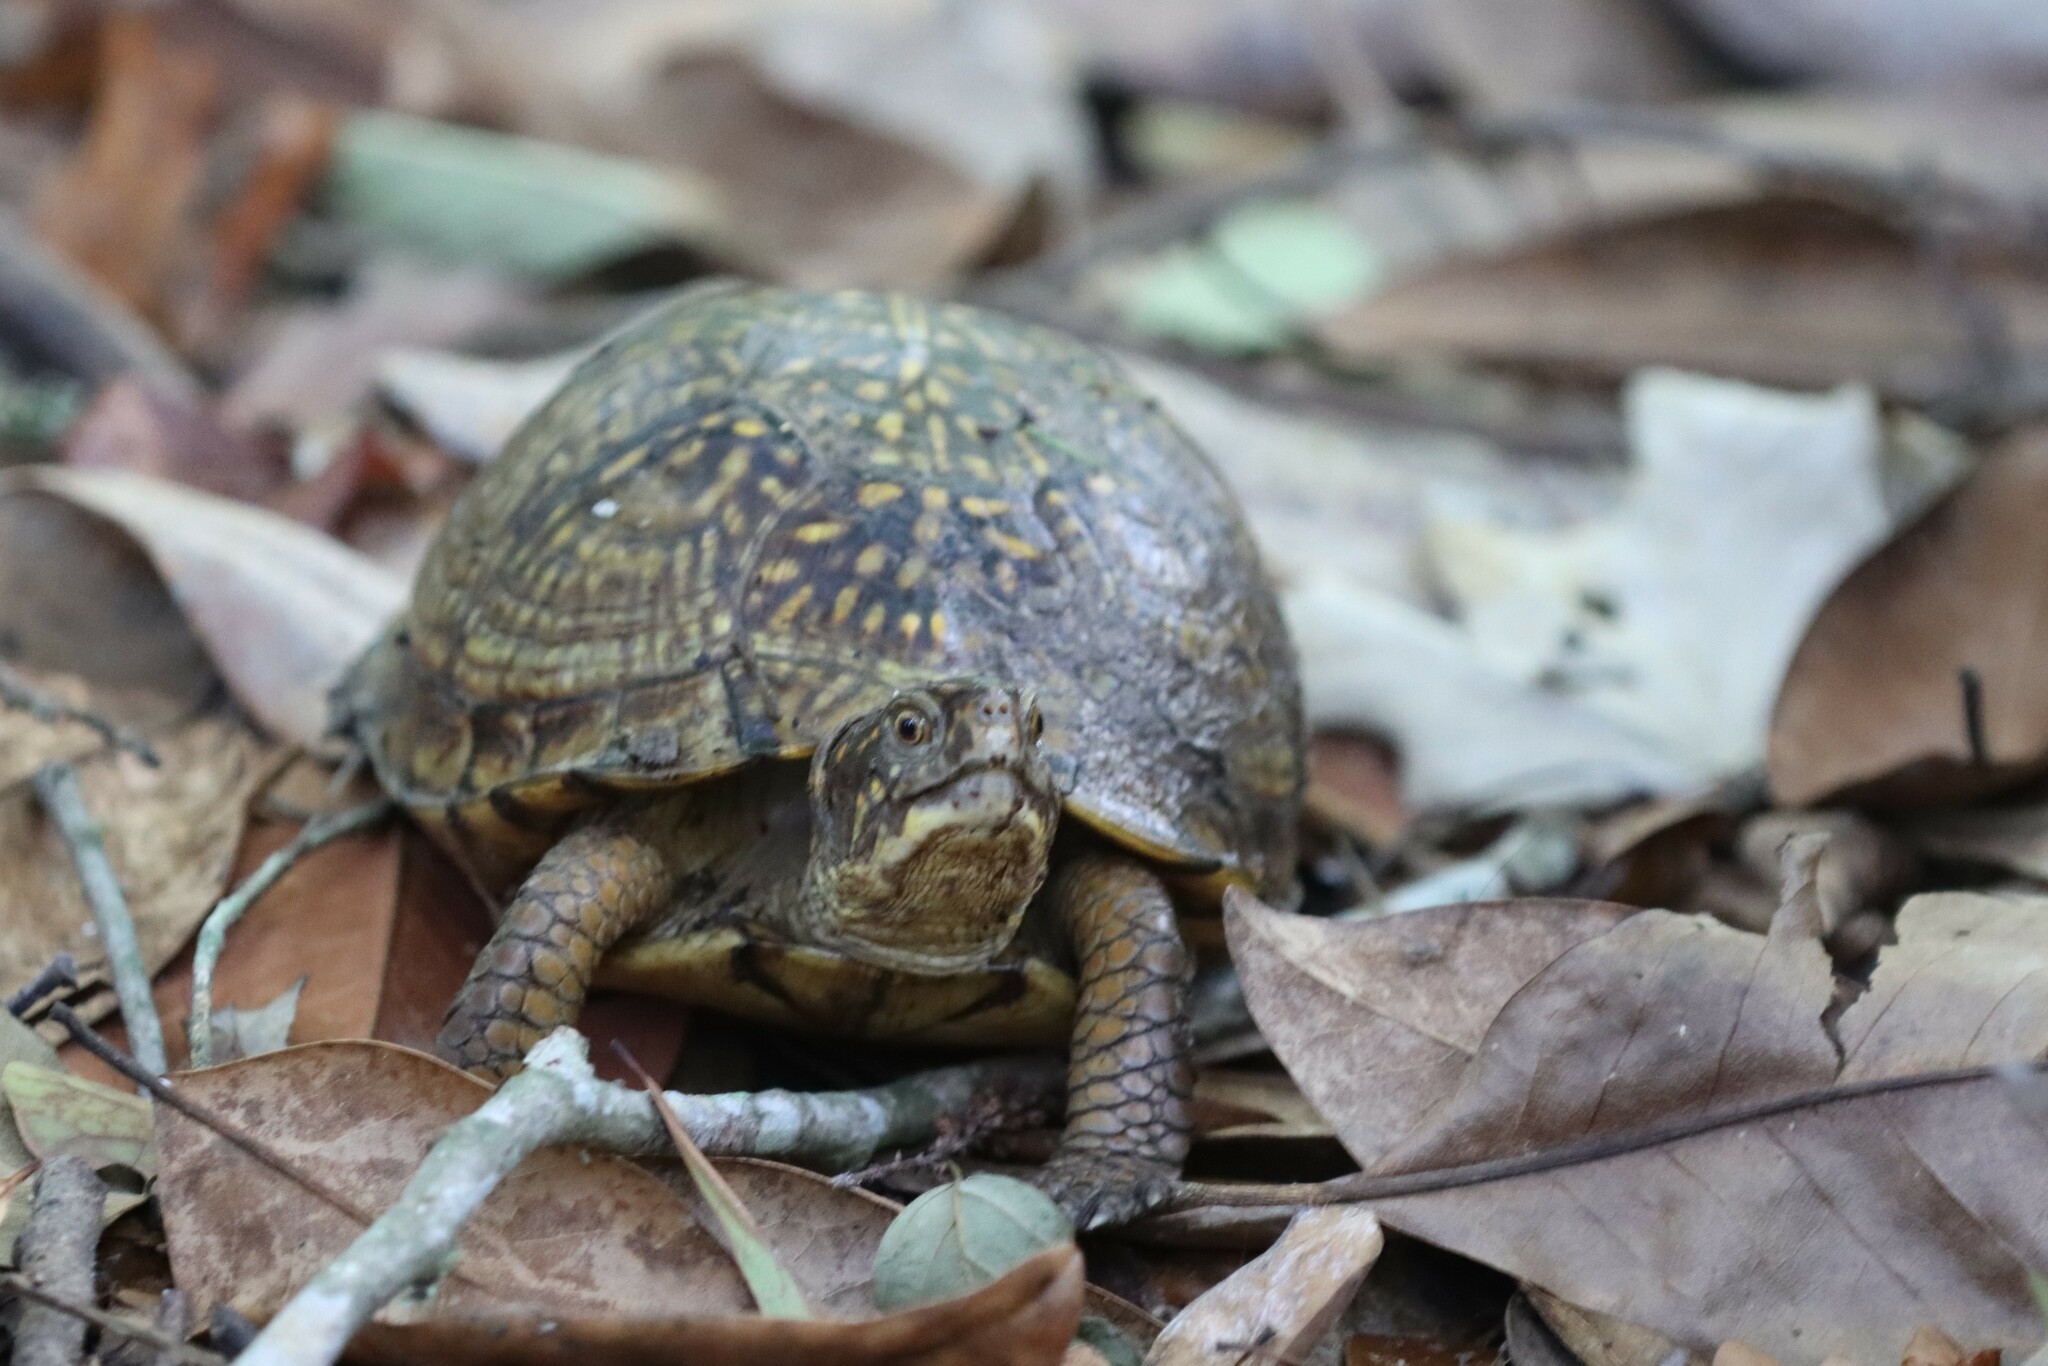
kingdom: Animalia
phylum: Chordata
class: Testudines
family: Emydidae
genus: Terrapene
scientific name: Terrapene carolina
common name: Common box turtle
